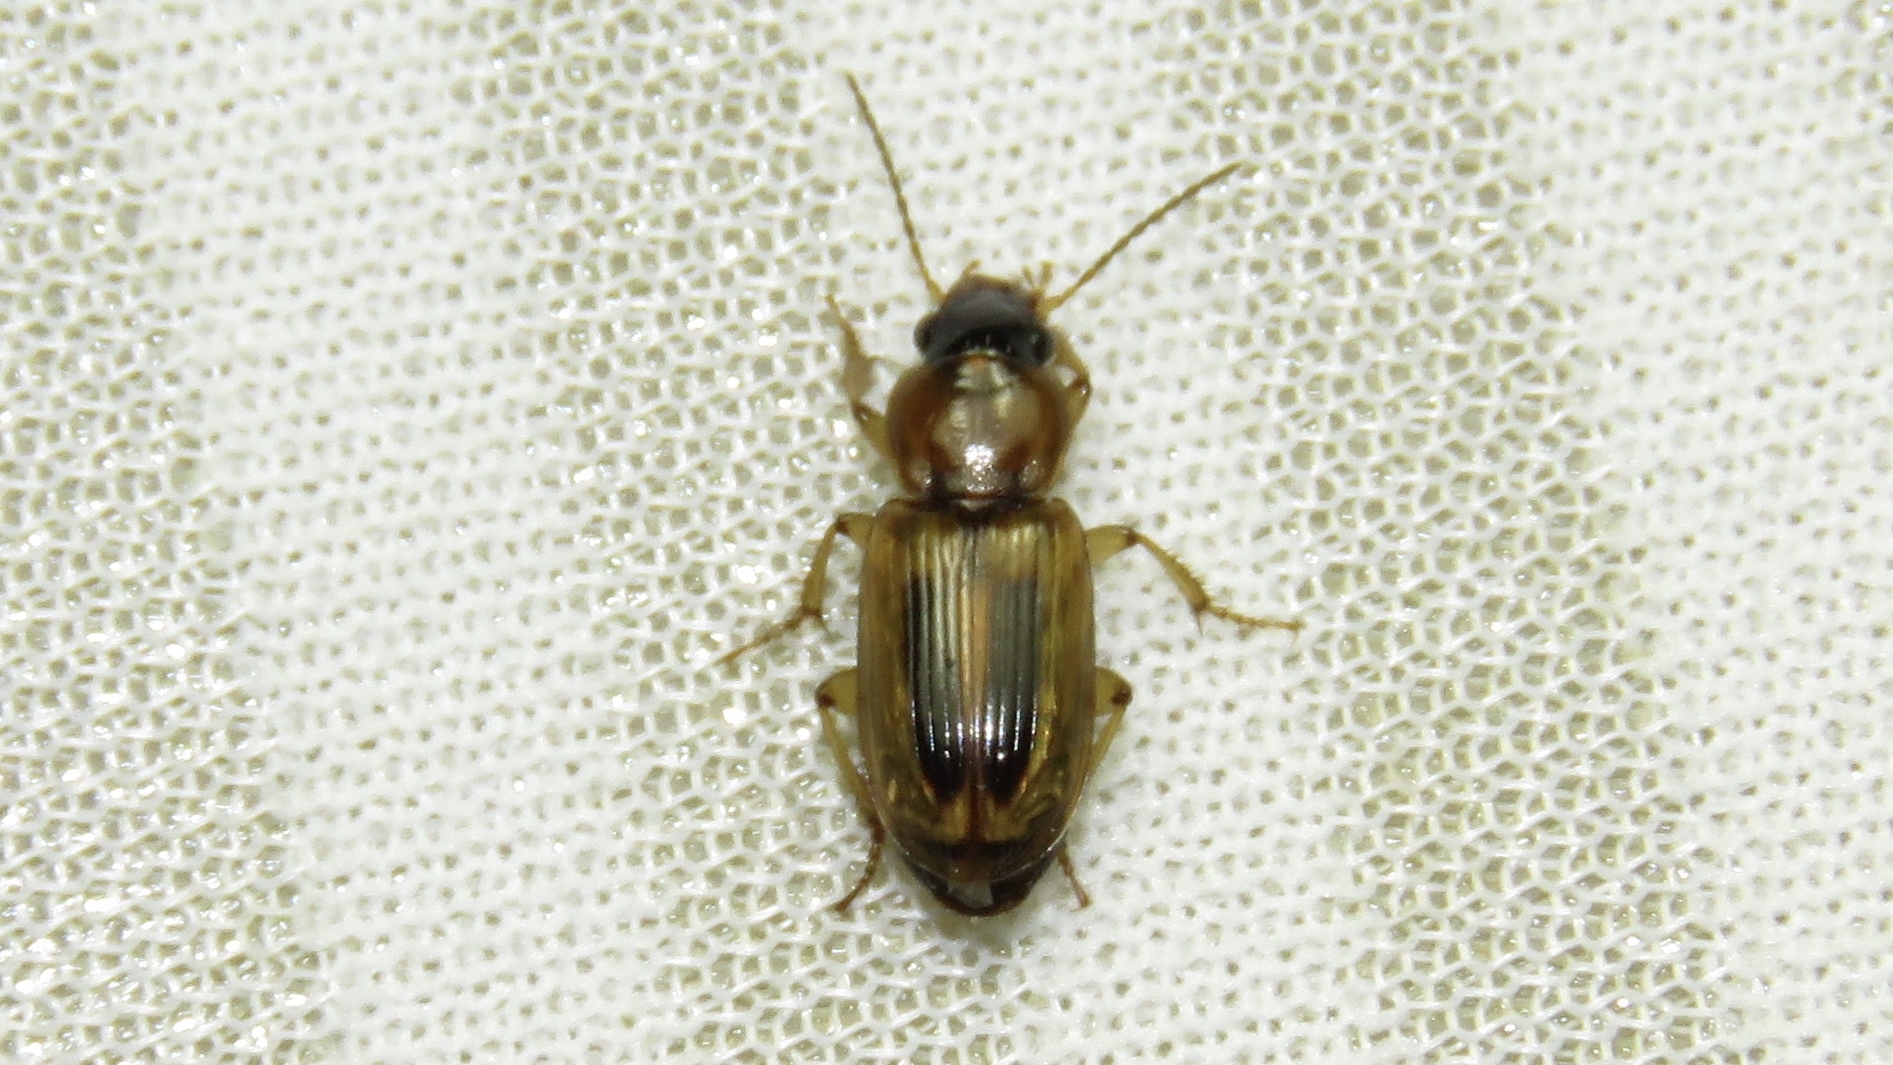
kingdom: Animalia
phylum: Arthropoda
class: Insecta
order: Coleoptera
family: Carabidae
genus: Stenolophus
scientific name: Stenolophus lecontei
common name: Leconte's seedcorn beetle
